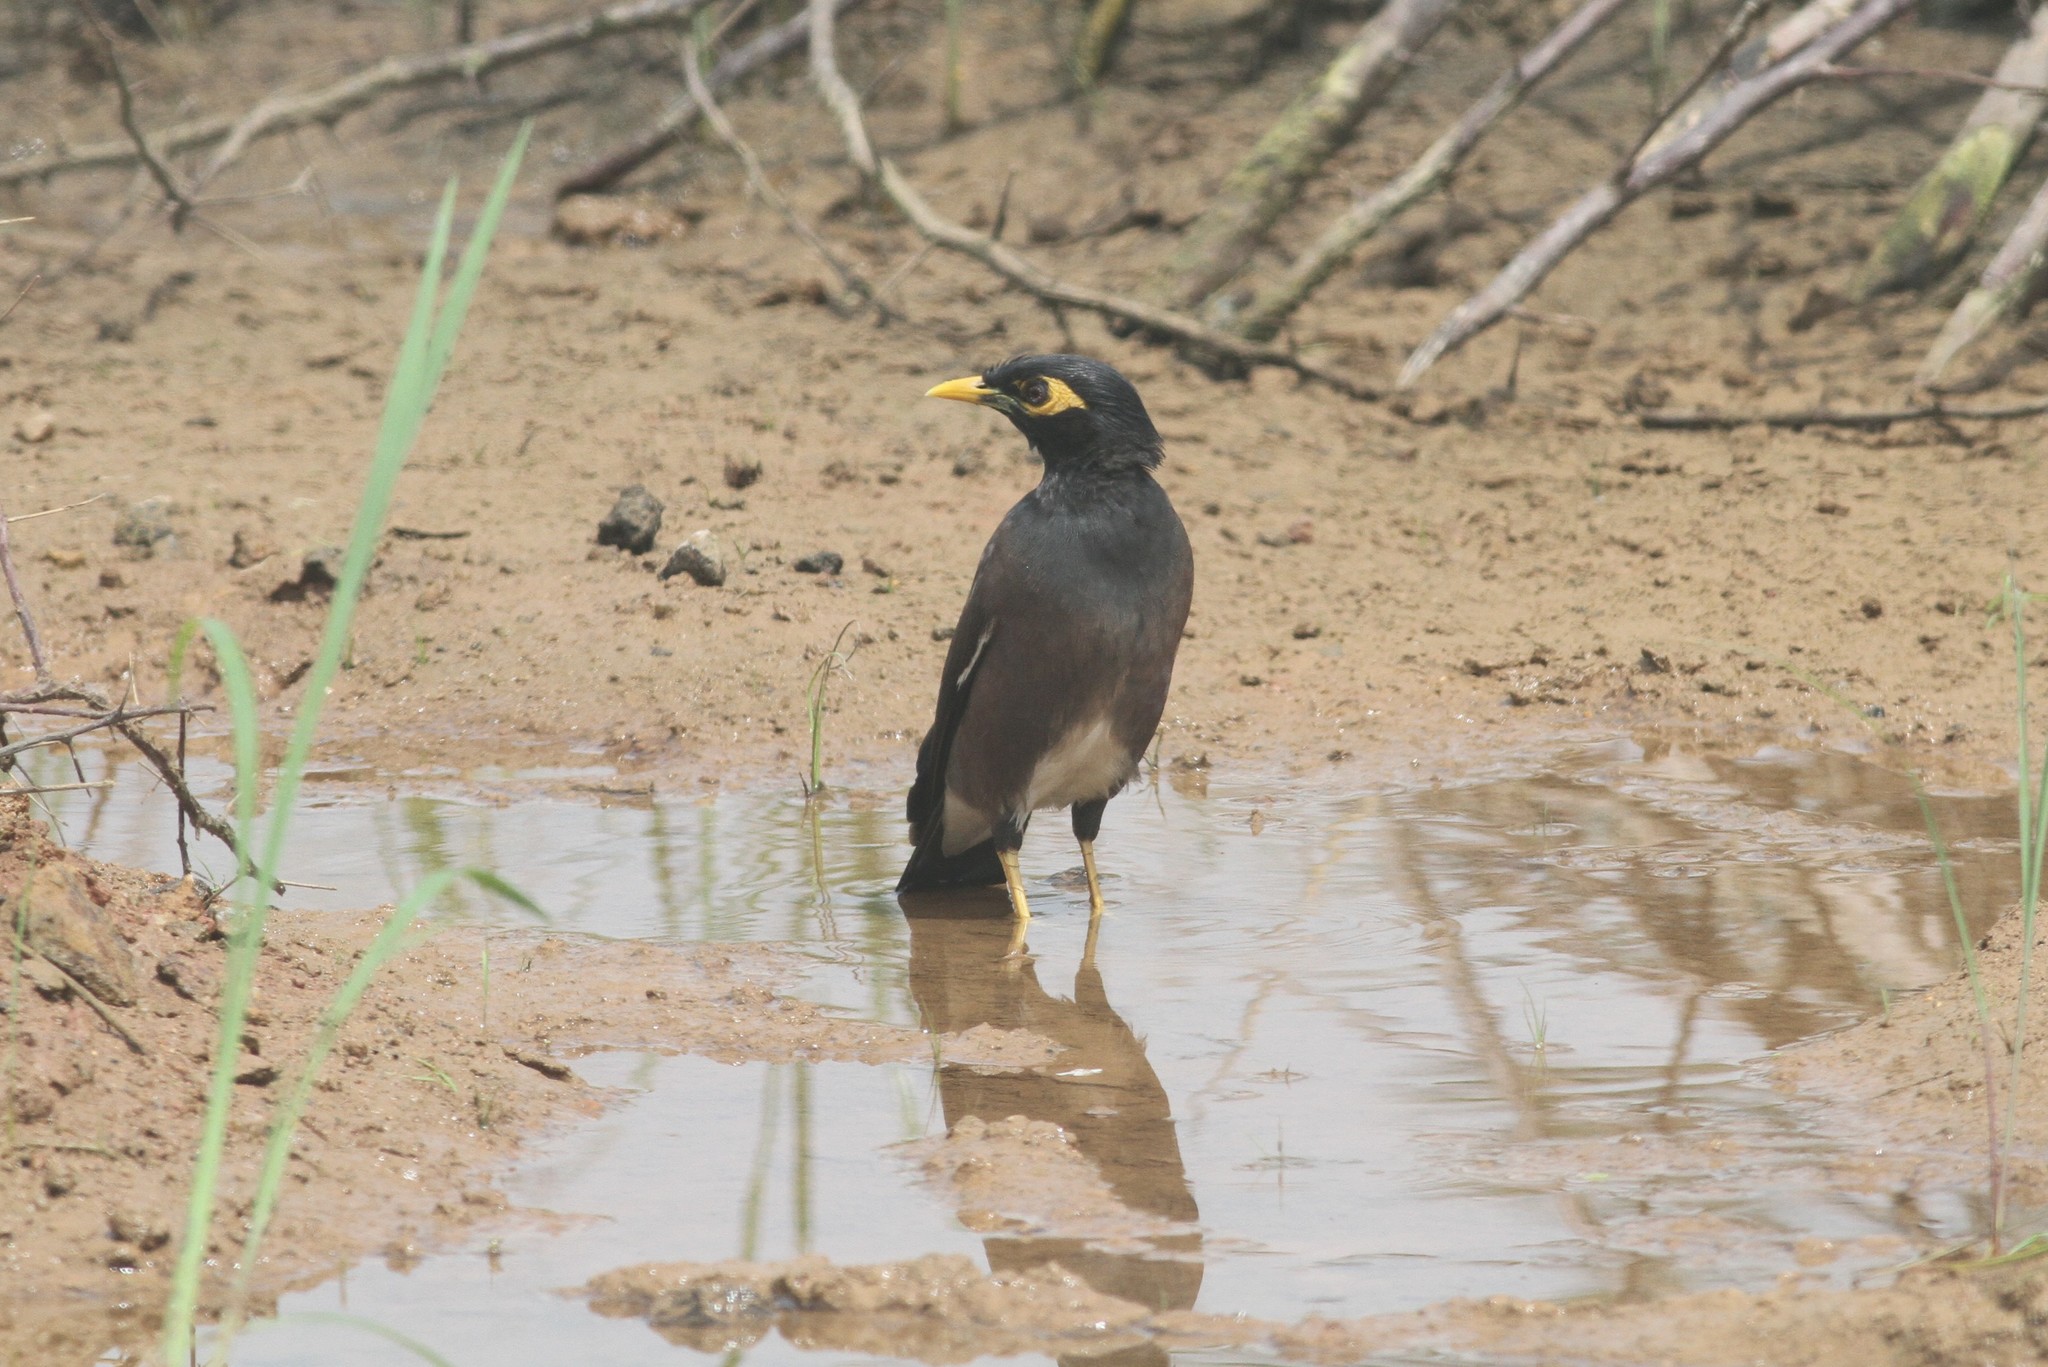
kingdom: Animalia
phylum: Chordata
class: Aves
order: Passeriformes
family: Sturnidae
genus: Acridotheres
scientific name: Acridotheres tristis
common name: Common myna
